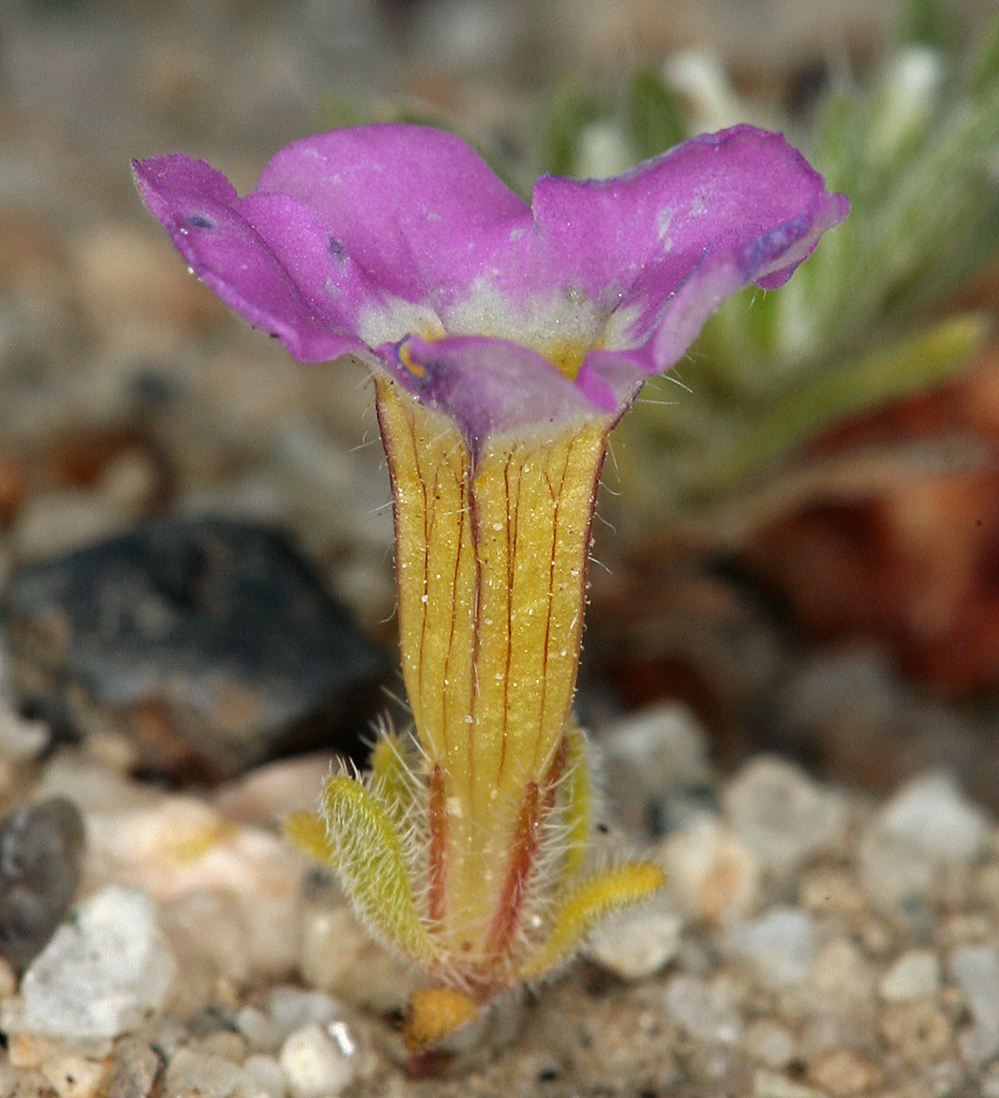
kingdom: Plantae
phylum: Tracheophyta
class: Magnoliopsida
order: Boraginales
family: Namaceae
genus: Nama
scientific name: Nama aretioides
